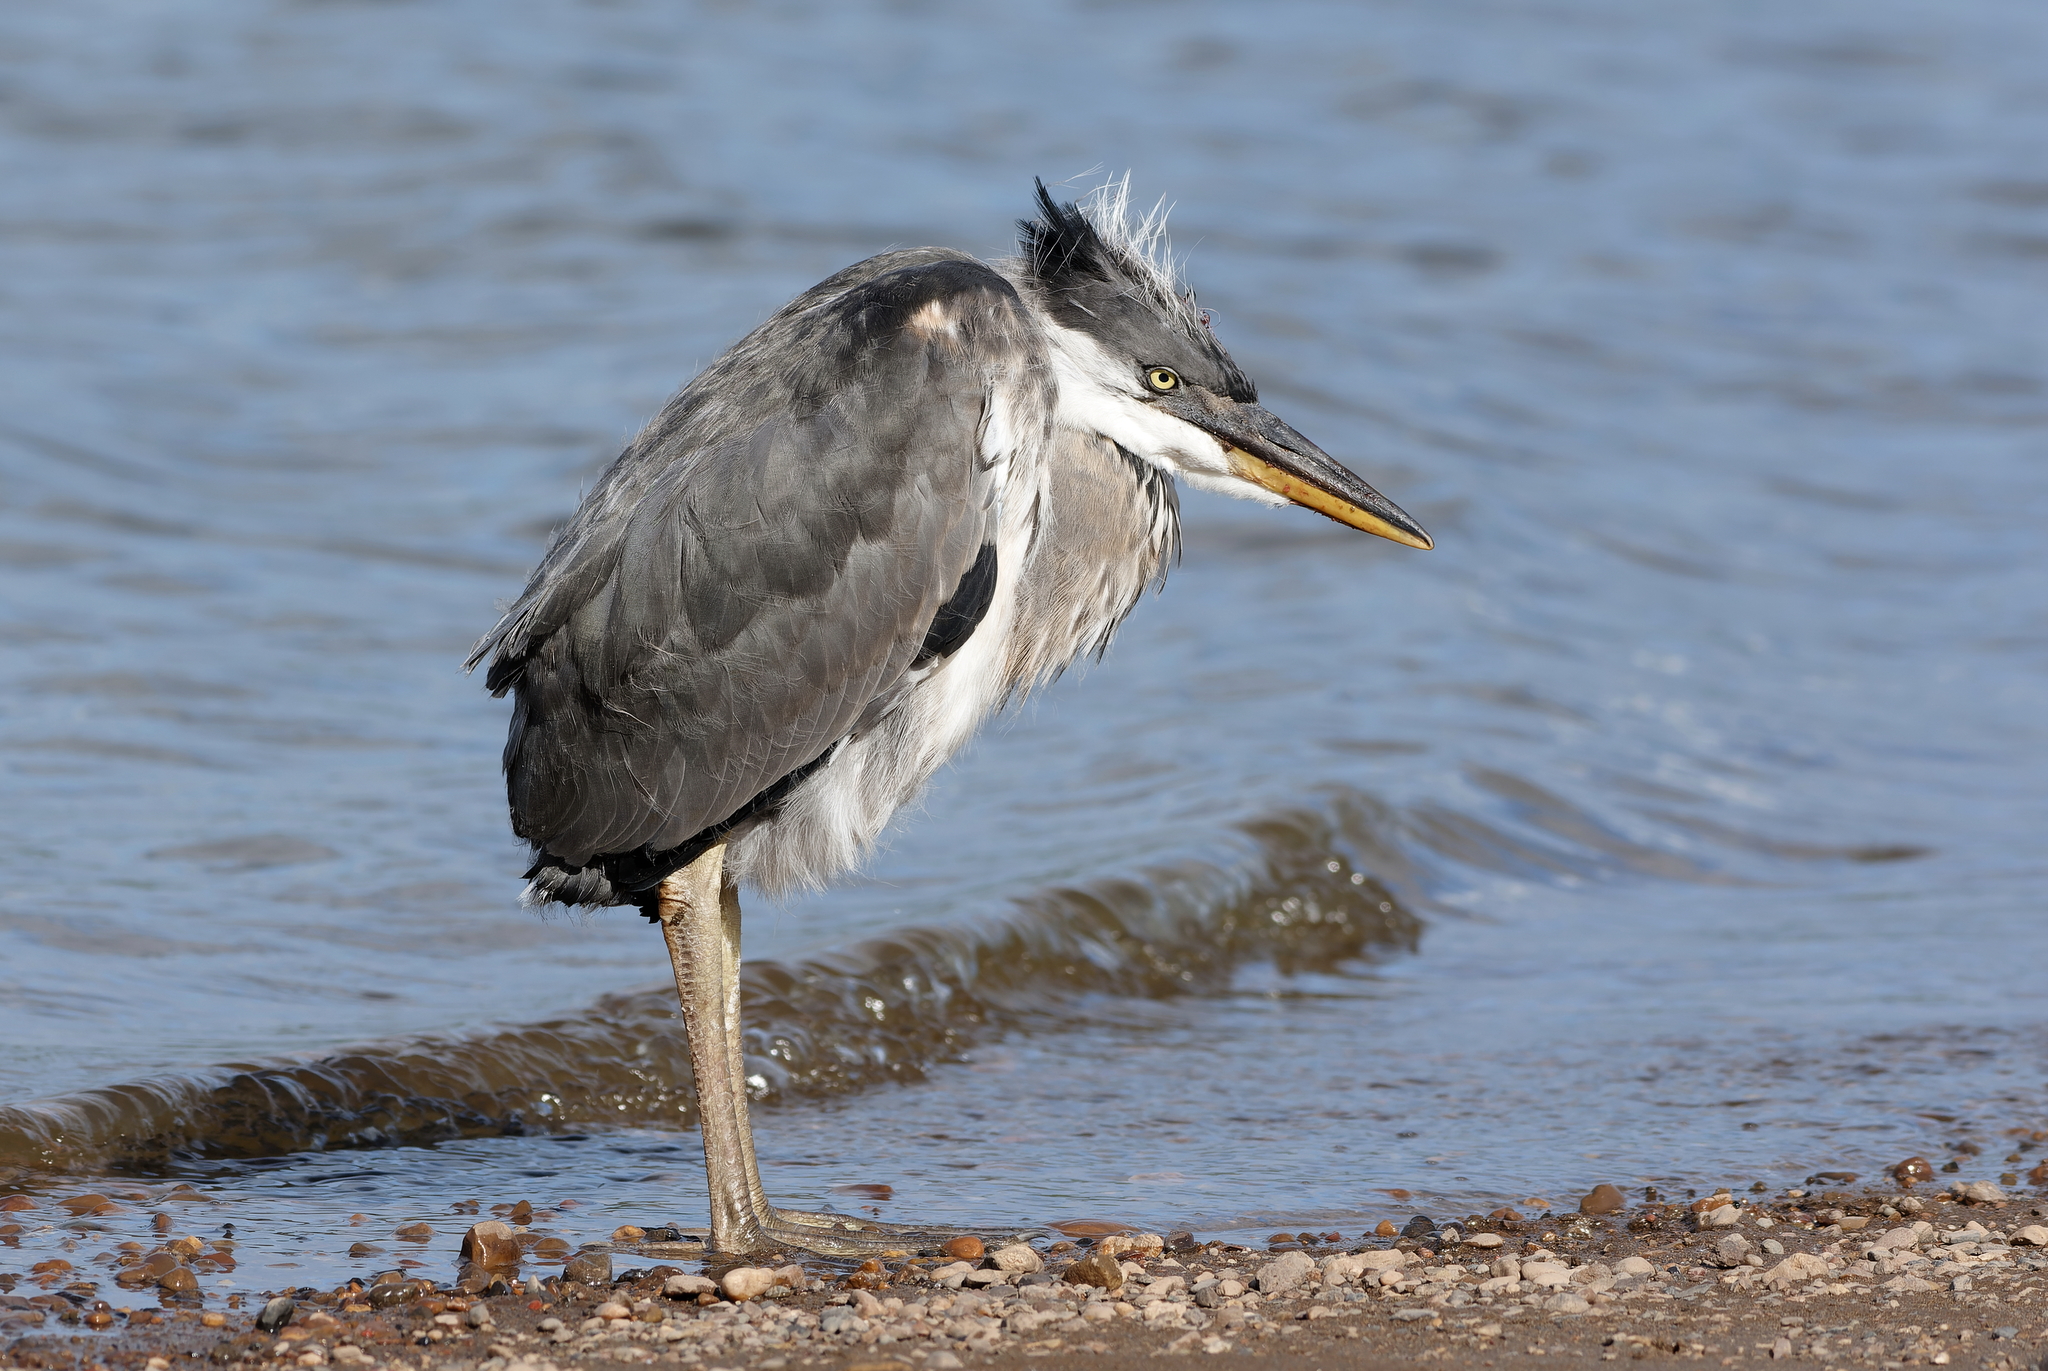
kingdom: Animalia
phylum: Chordata
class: Aves
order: Pelecaniformes
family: Ardeidae
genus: Ardea
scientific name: Ardea cinerea
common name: Grey heron
